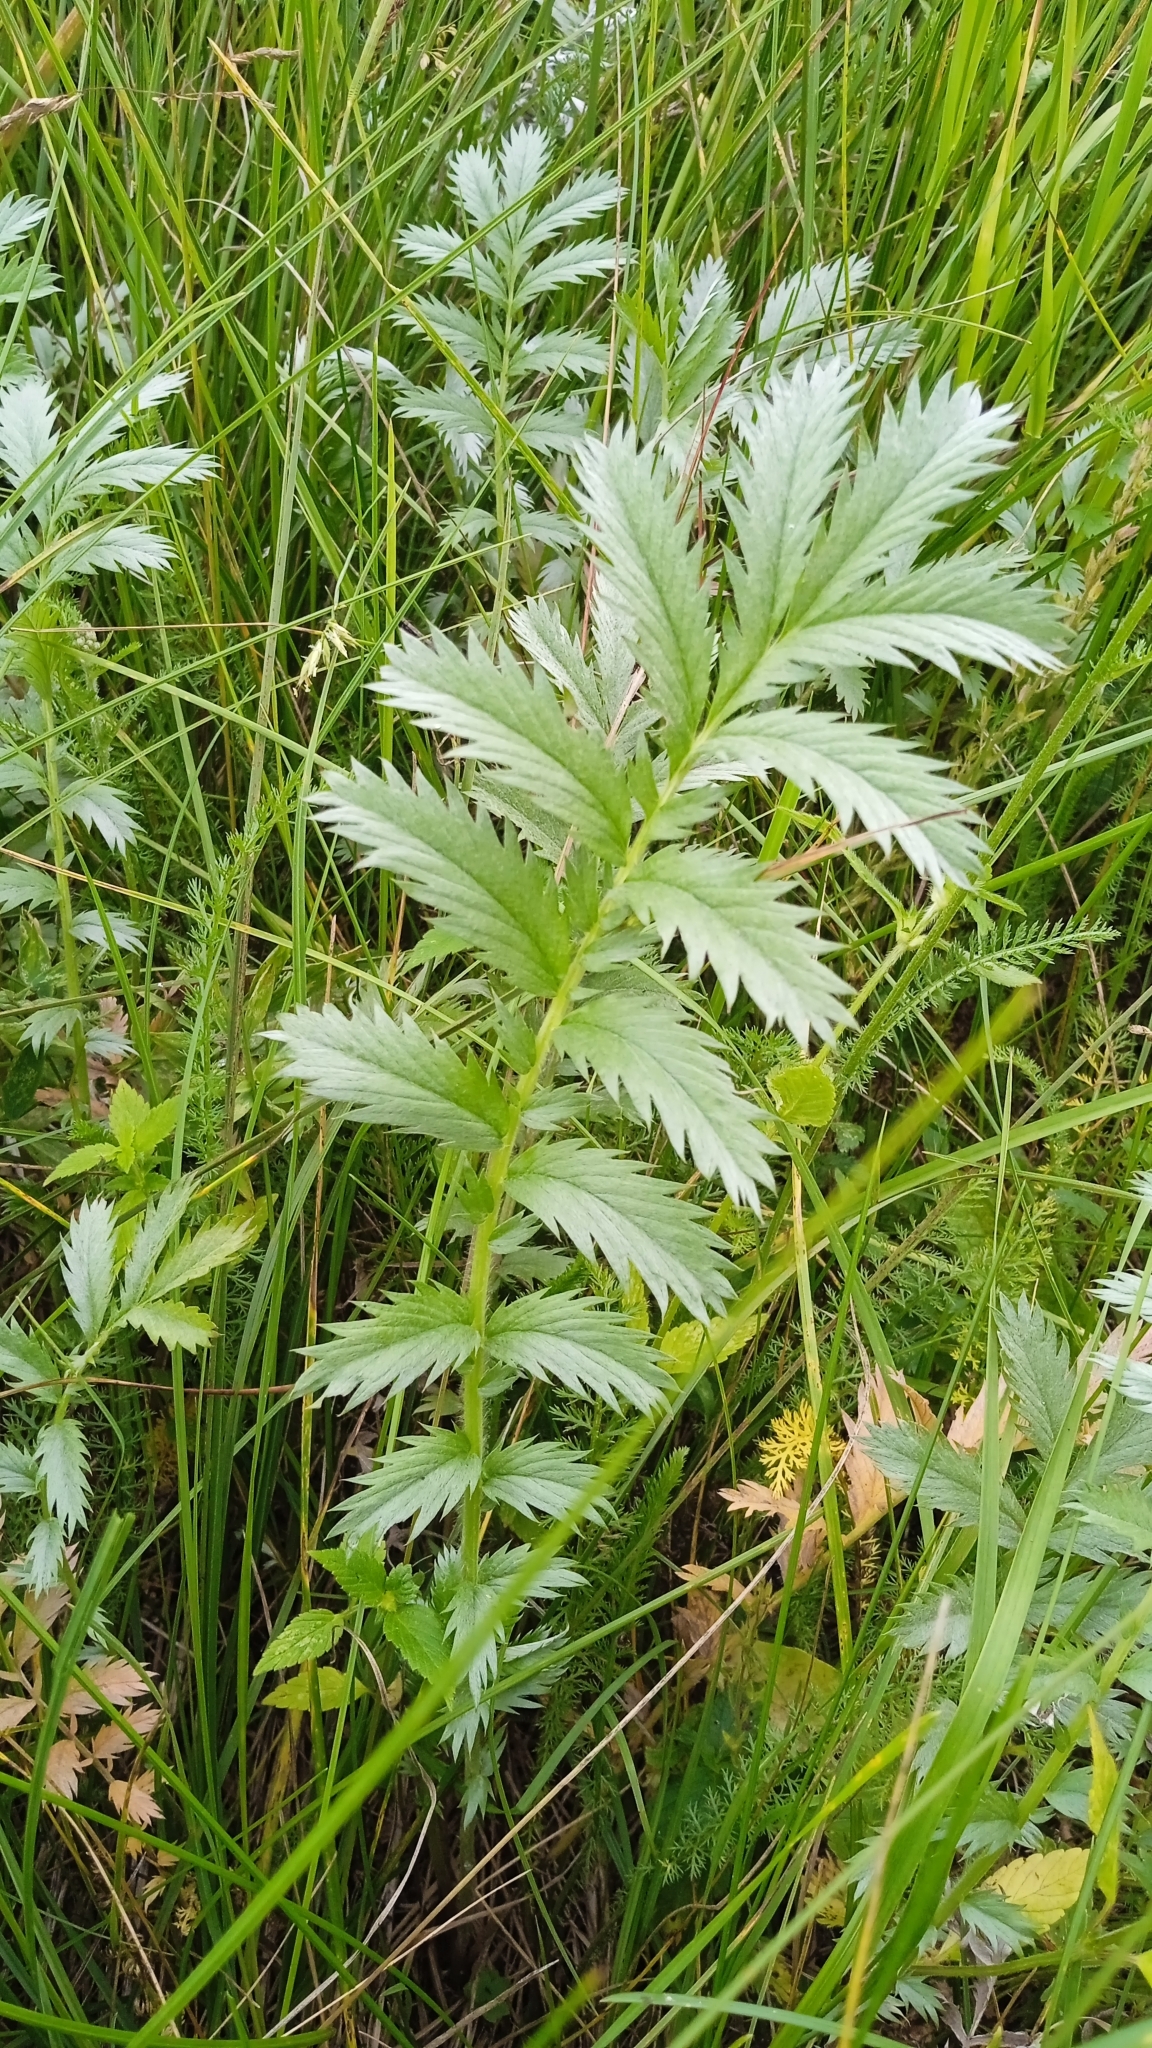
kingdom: Plantae
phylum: Tracheophyta
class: Magnoliopsida
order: Rosales
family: Rosaceae
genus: Argentina
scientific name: Argentina anserina
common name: Common silverweed
